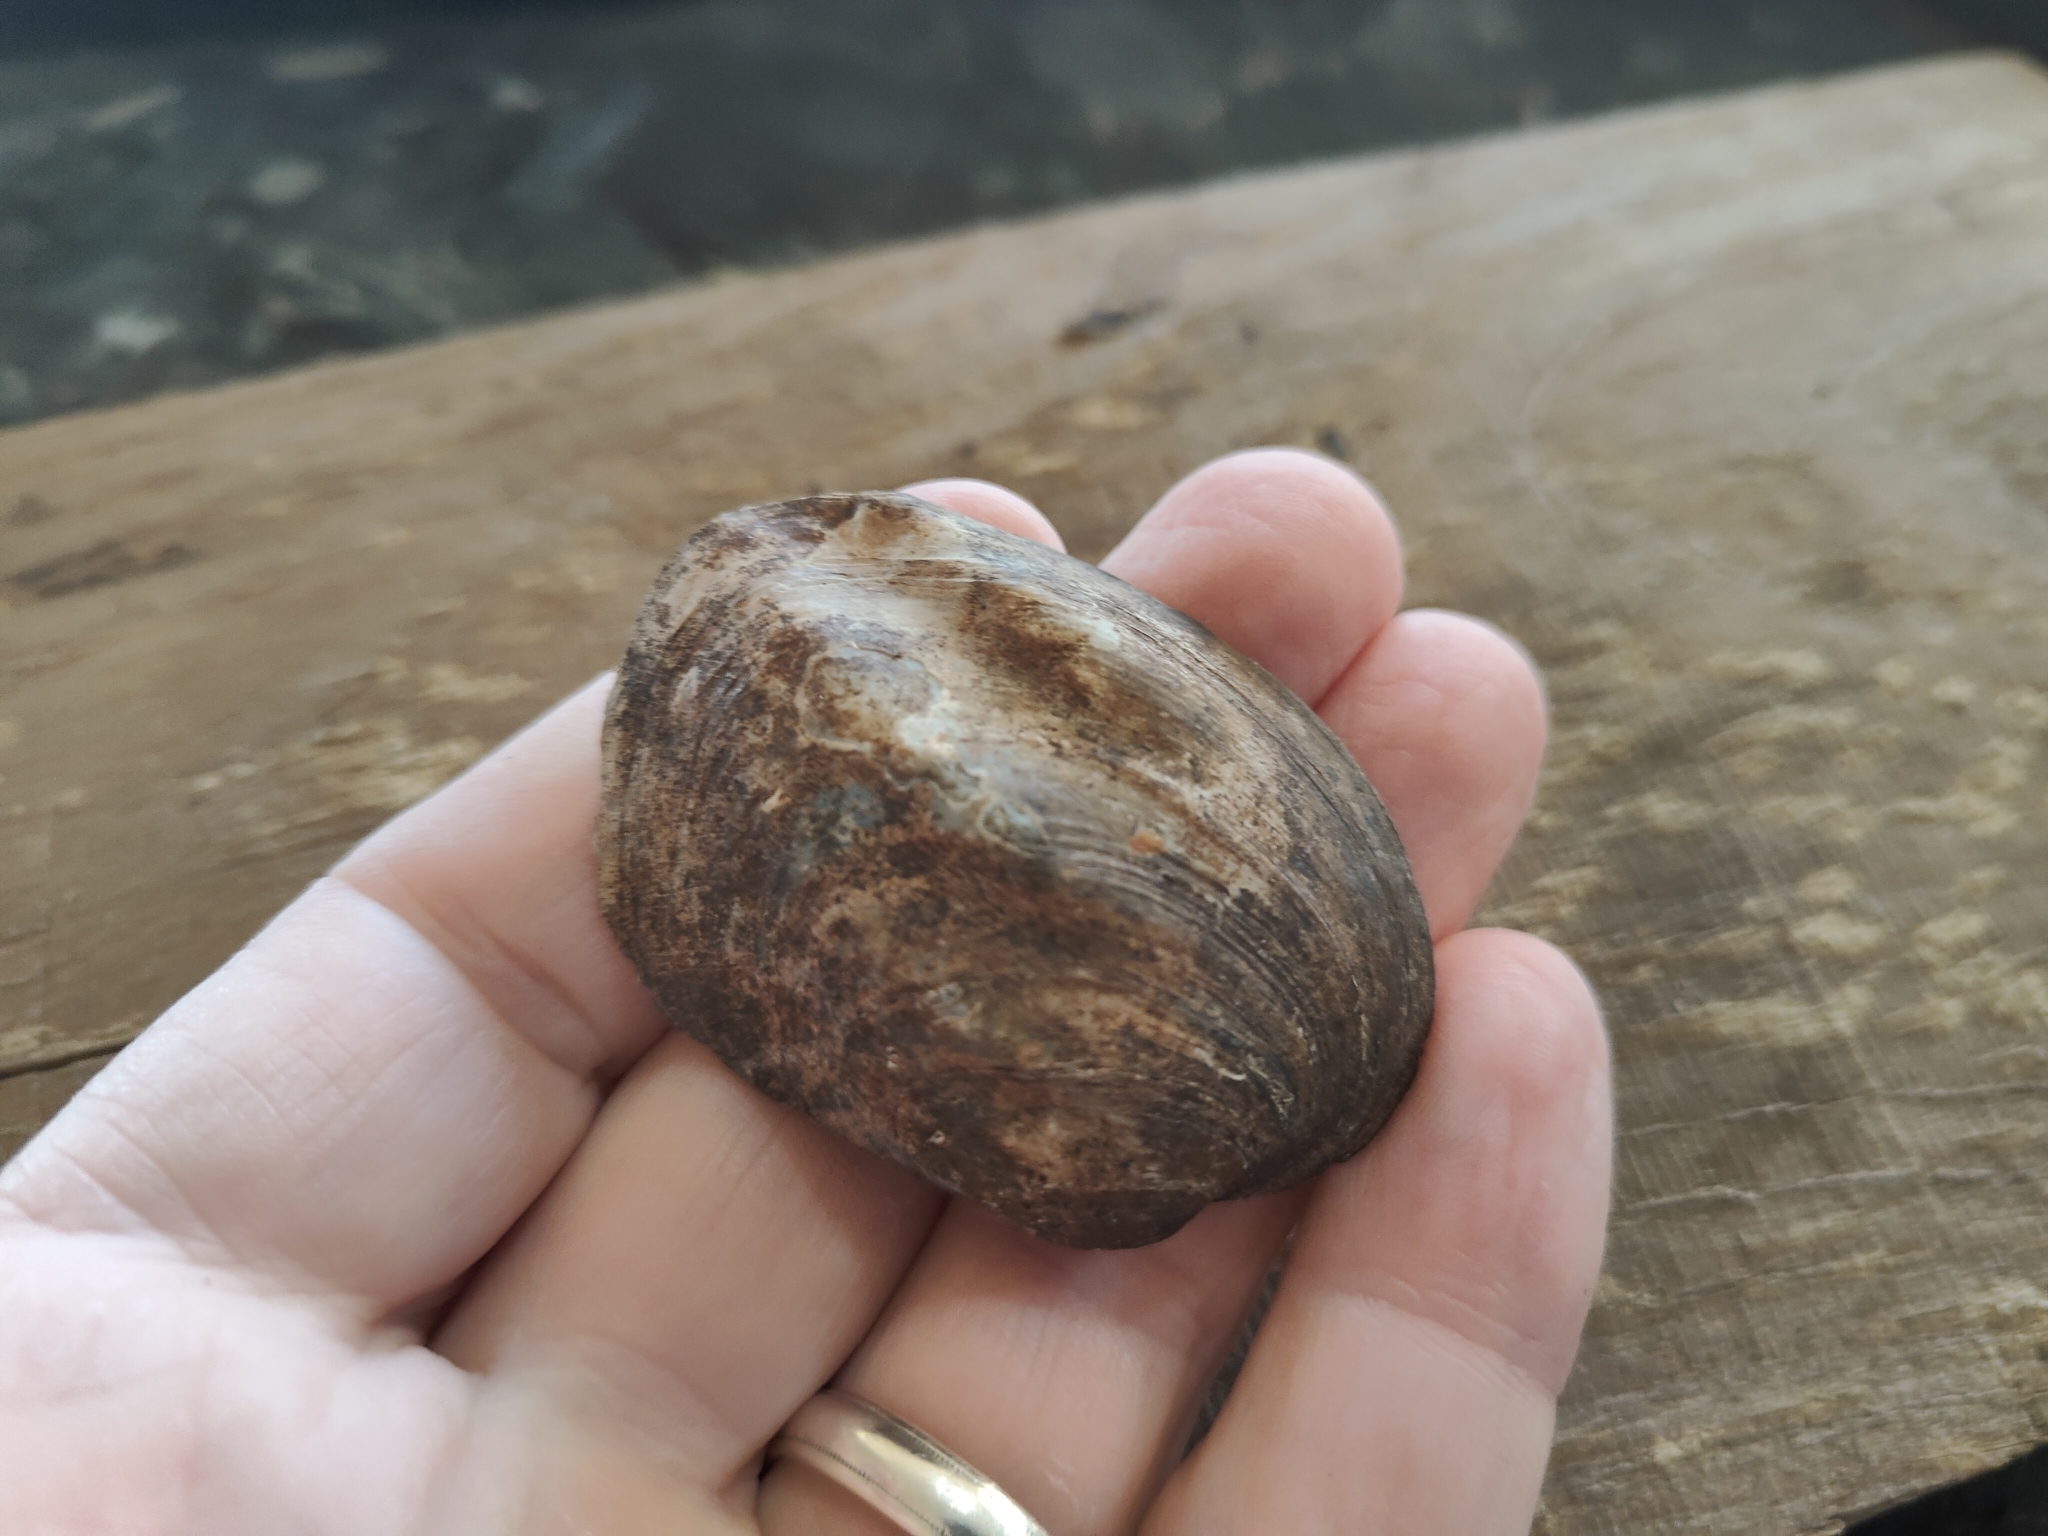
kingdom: Animalia
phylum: Mollusca
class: Bivalvia
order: Unionida
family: Unionidae
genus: Amblema
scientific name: Amblema plicata
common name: Threeridge
